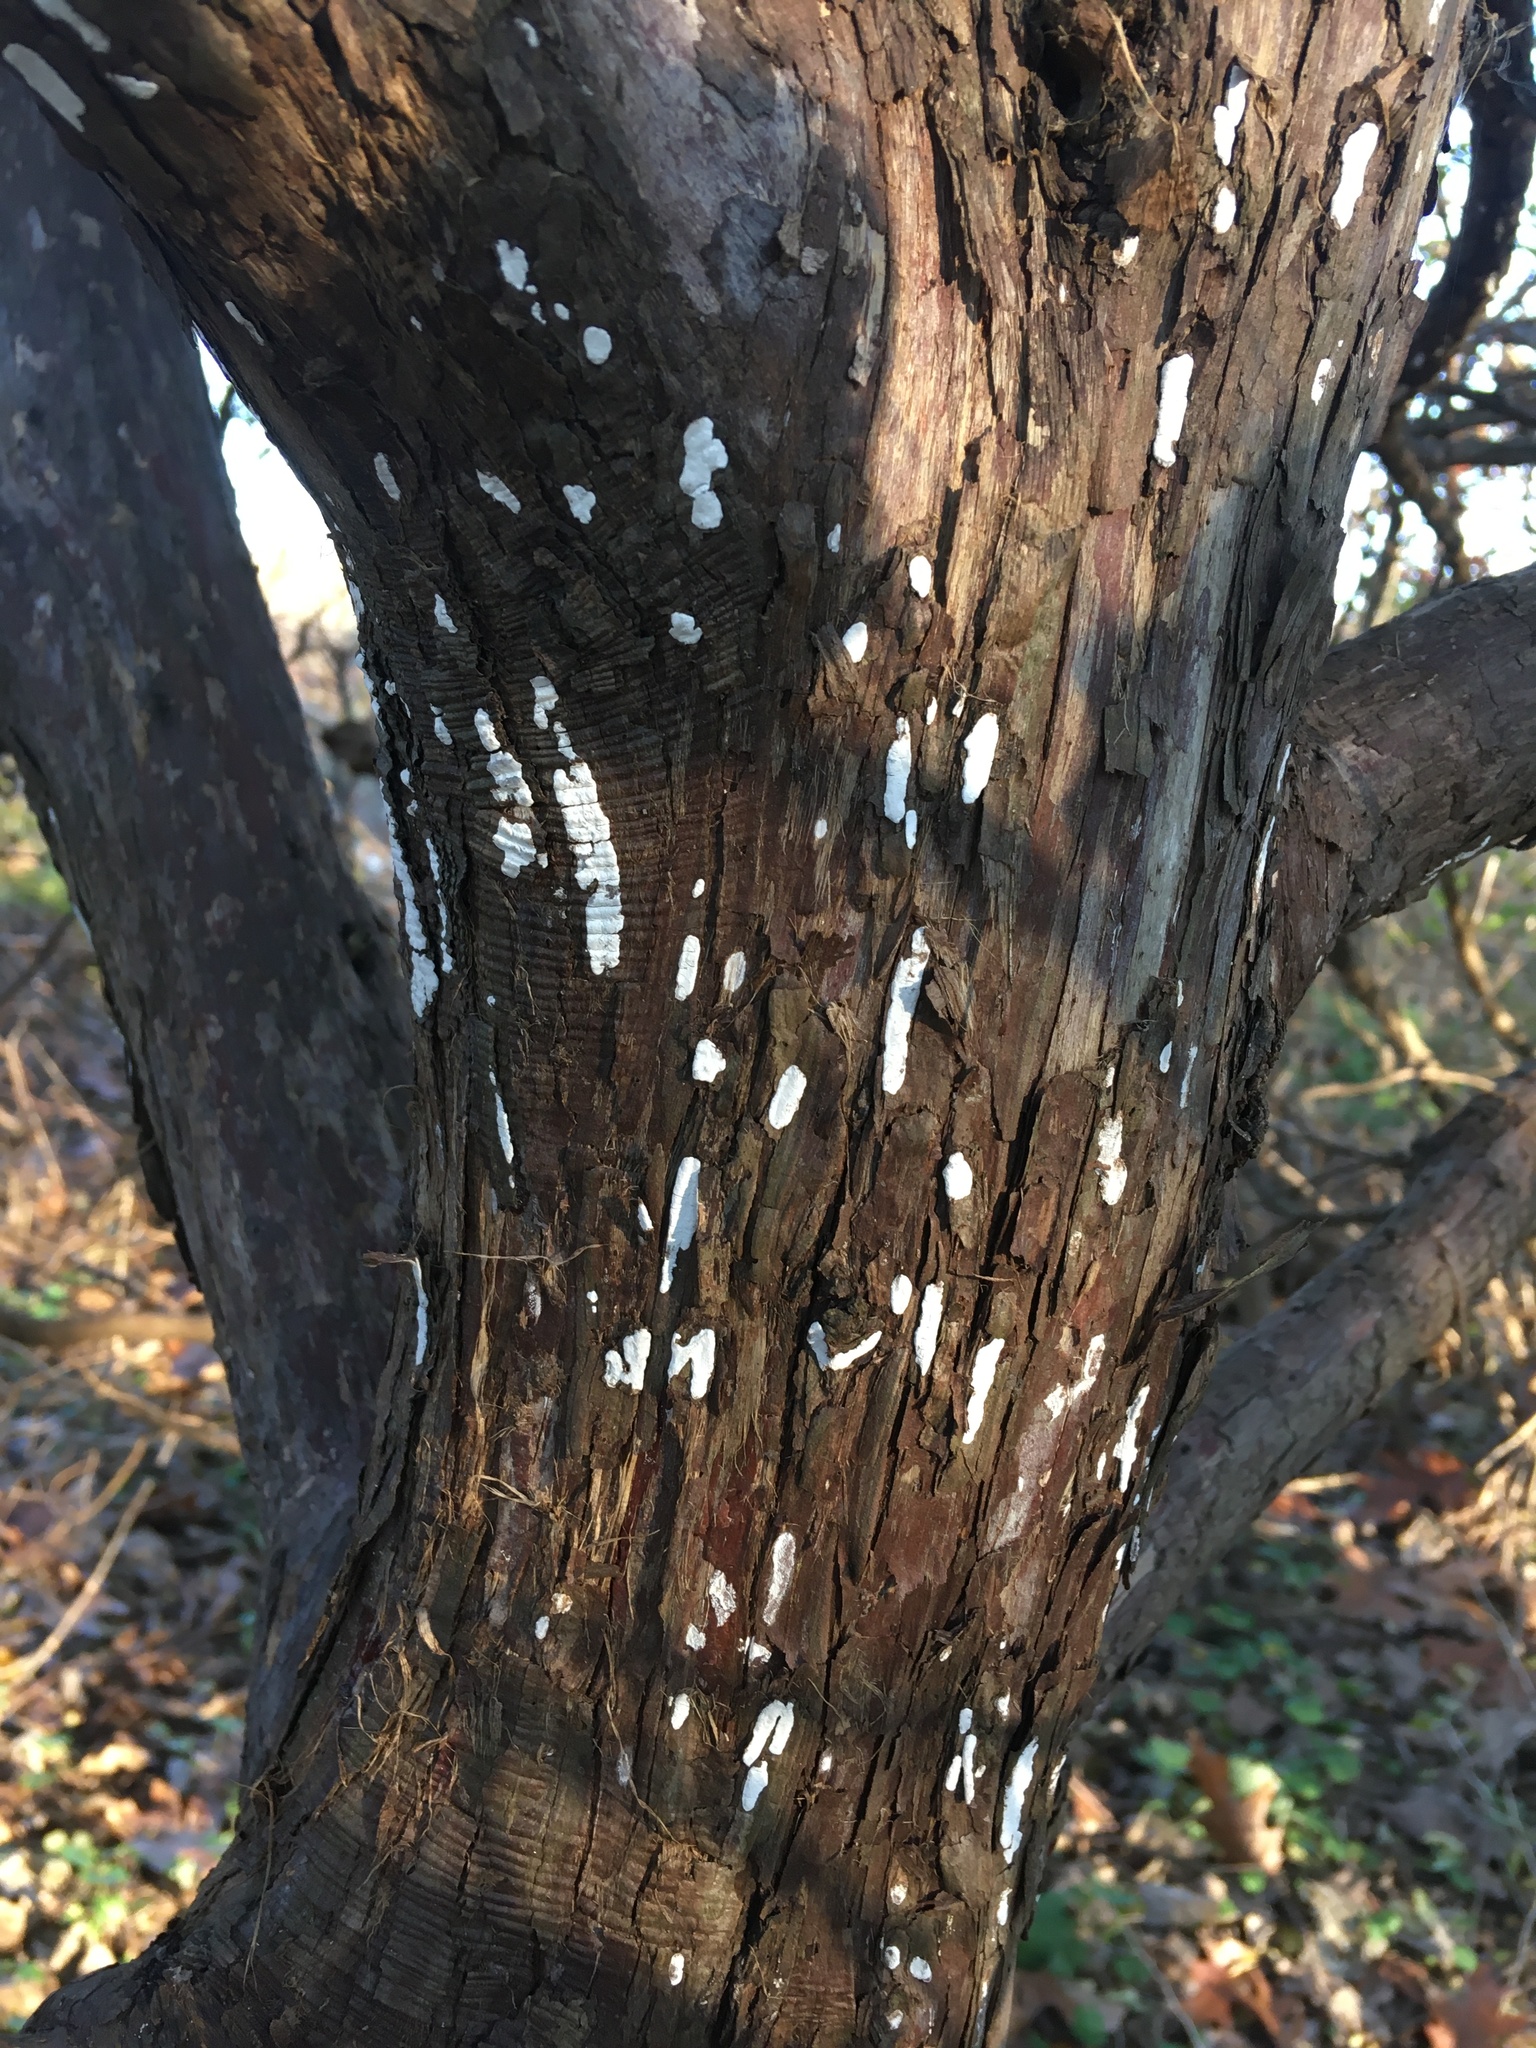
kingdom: Plantae
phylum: Tracheophyta
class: Pinopsida
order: Pinales
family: Cupressaceae
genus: Juniperus
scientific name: Juniperus virginiana
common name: Red juniper
